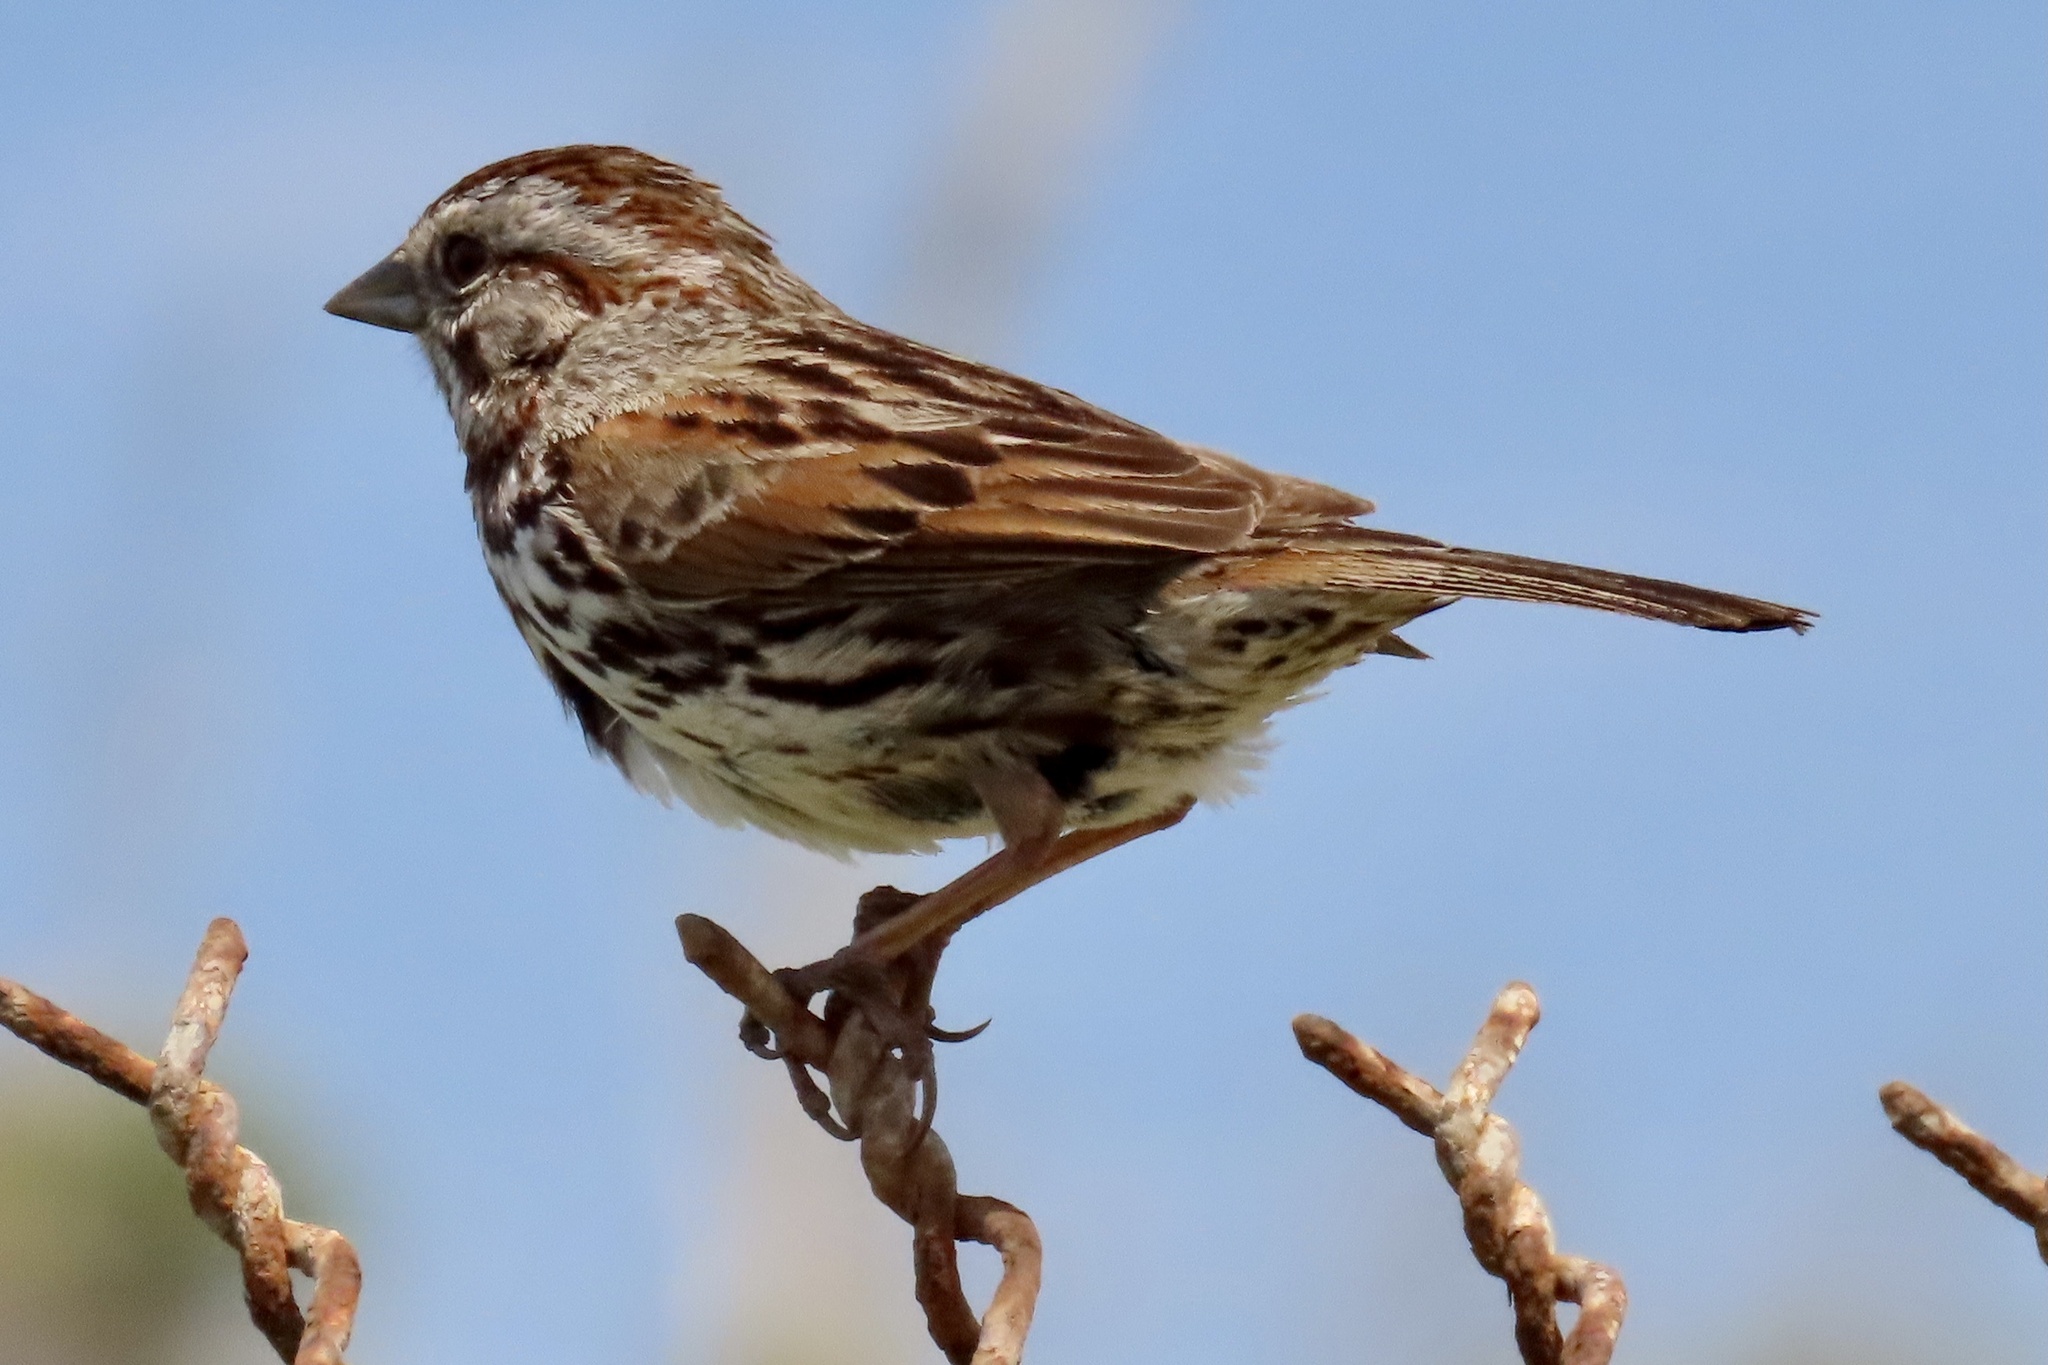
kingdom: Animalia
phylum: Chordata
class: Aves
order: Passeriformes
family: Passerellidae
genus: Melospiza
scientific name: Melospiza melodia
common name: Song sparrow
